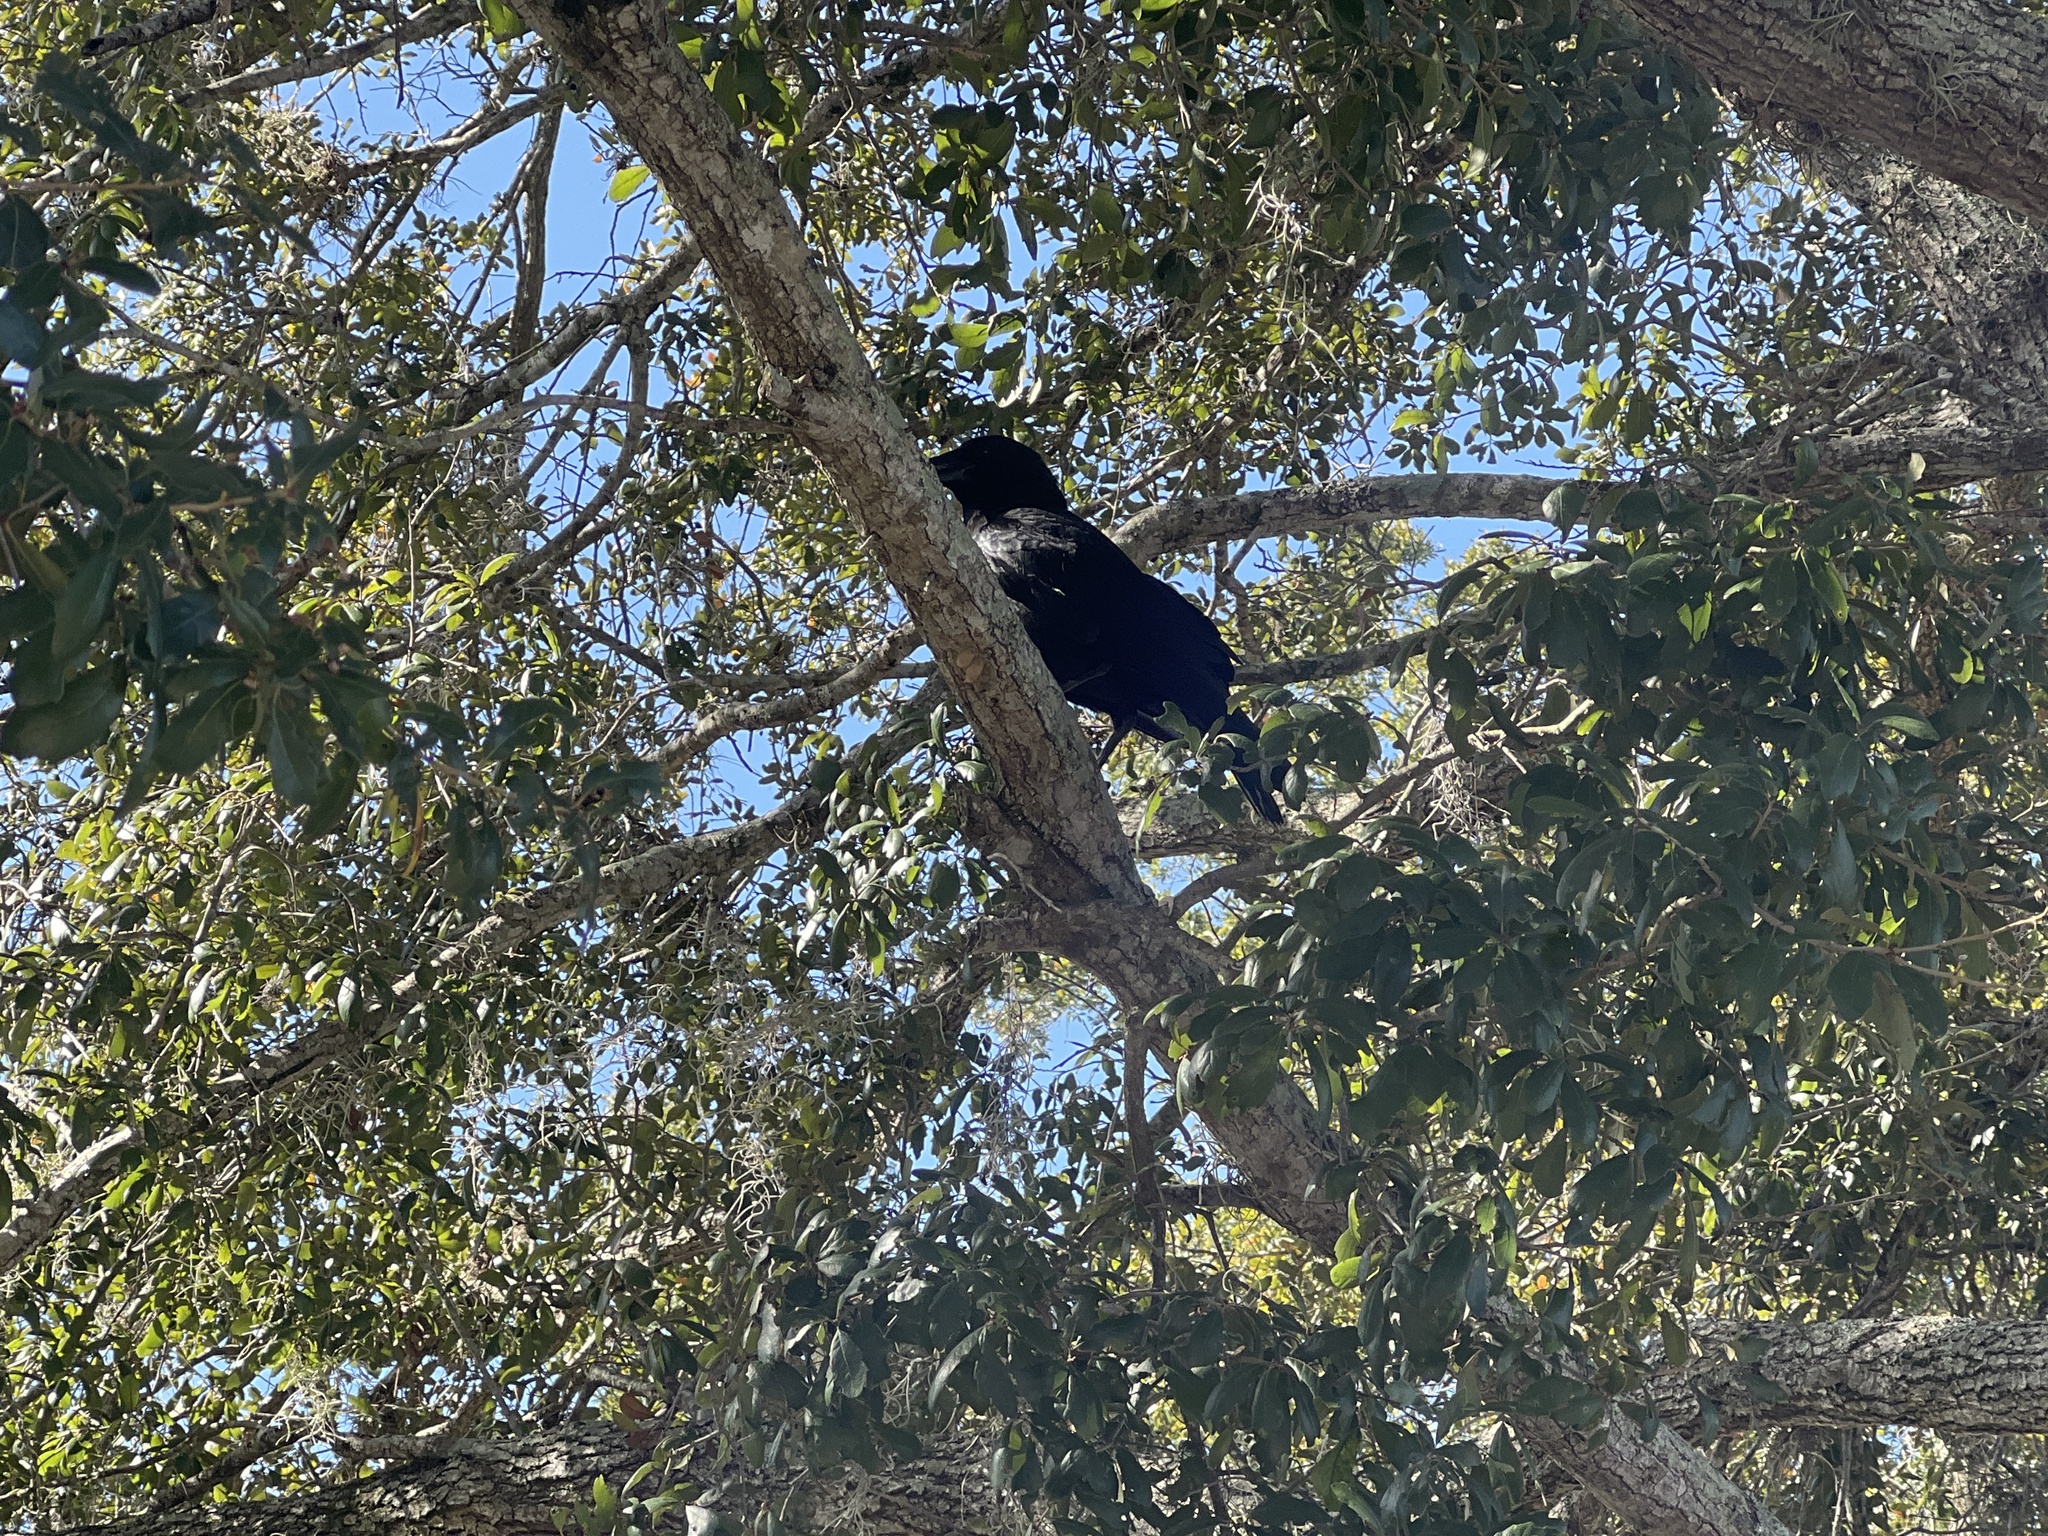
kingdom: Animalia
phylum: Chordata
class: Aves
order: Passeriformes
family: Corvidae
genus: Corvus
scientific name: Corvus brachyrhynchos
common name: American crow
